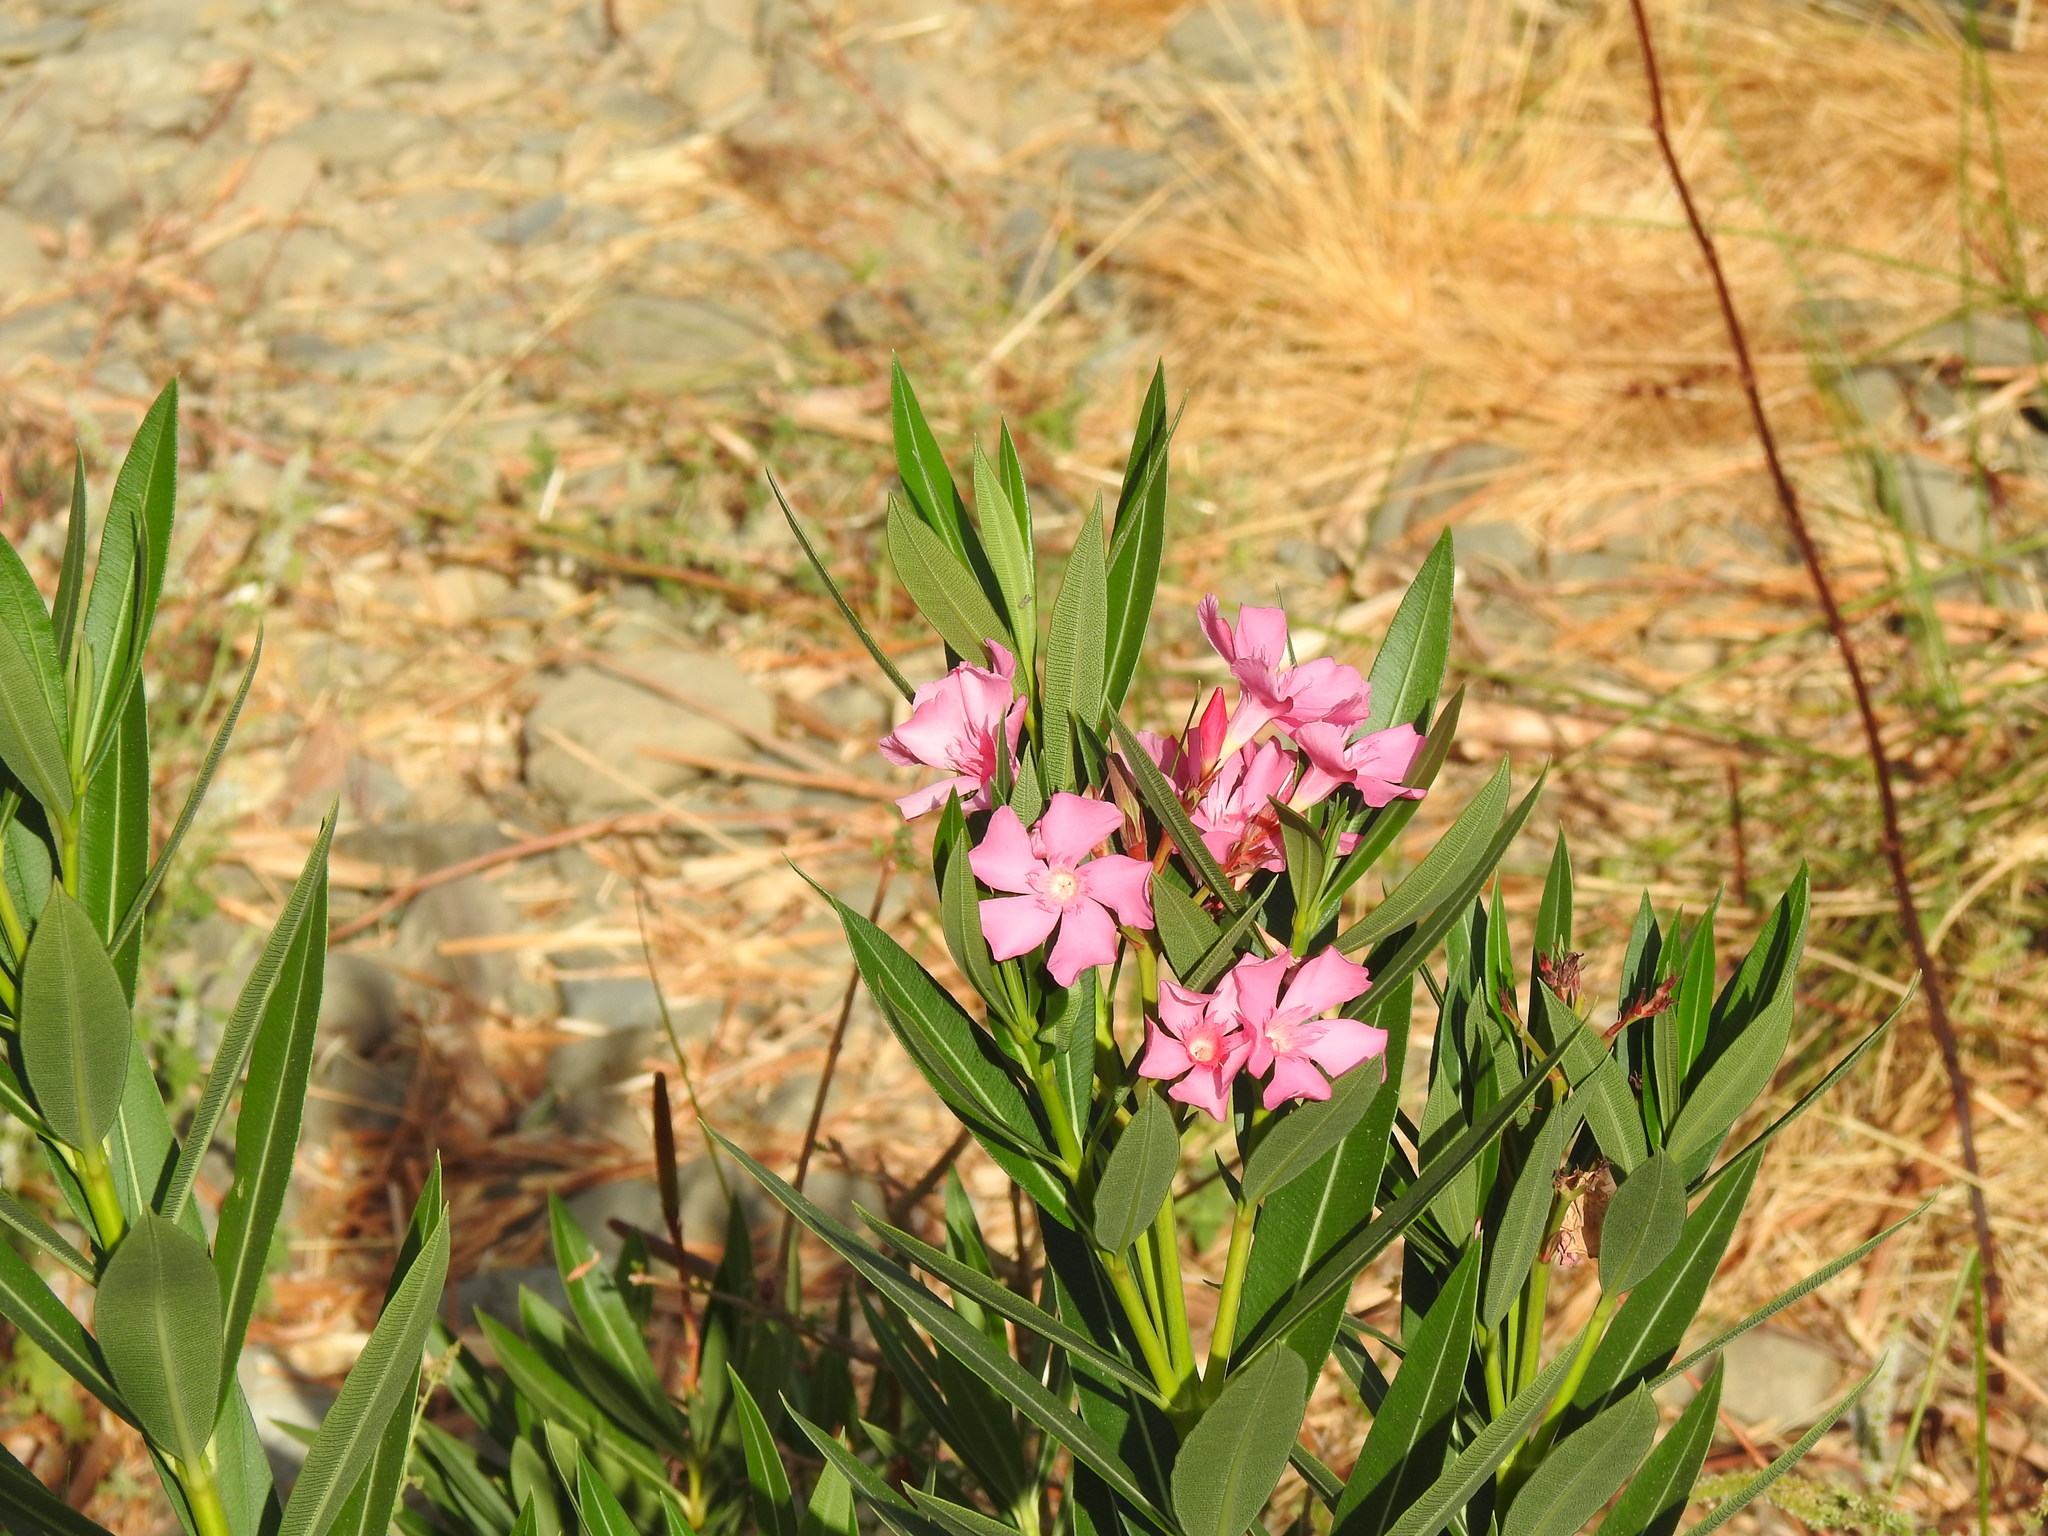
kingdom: Plantae
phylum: Tracheophyta
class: Magnoliopsida
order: Gentianales
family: Apocynaceae
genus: Nerium
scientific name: Nerium oleander
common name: Oleander
